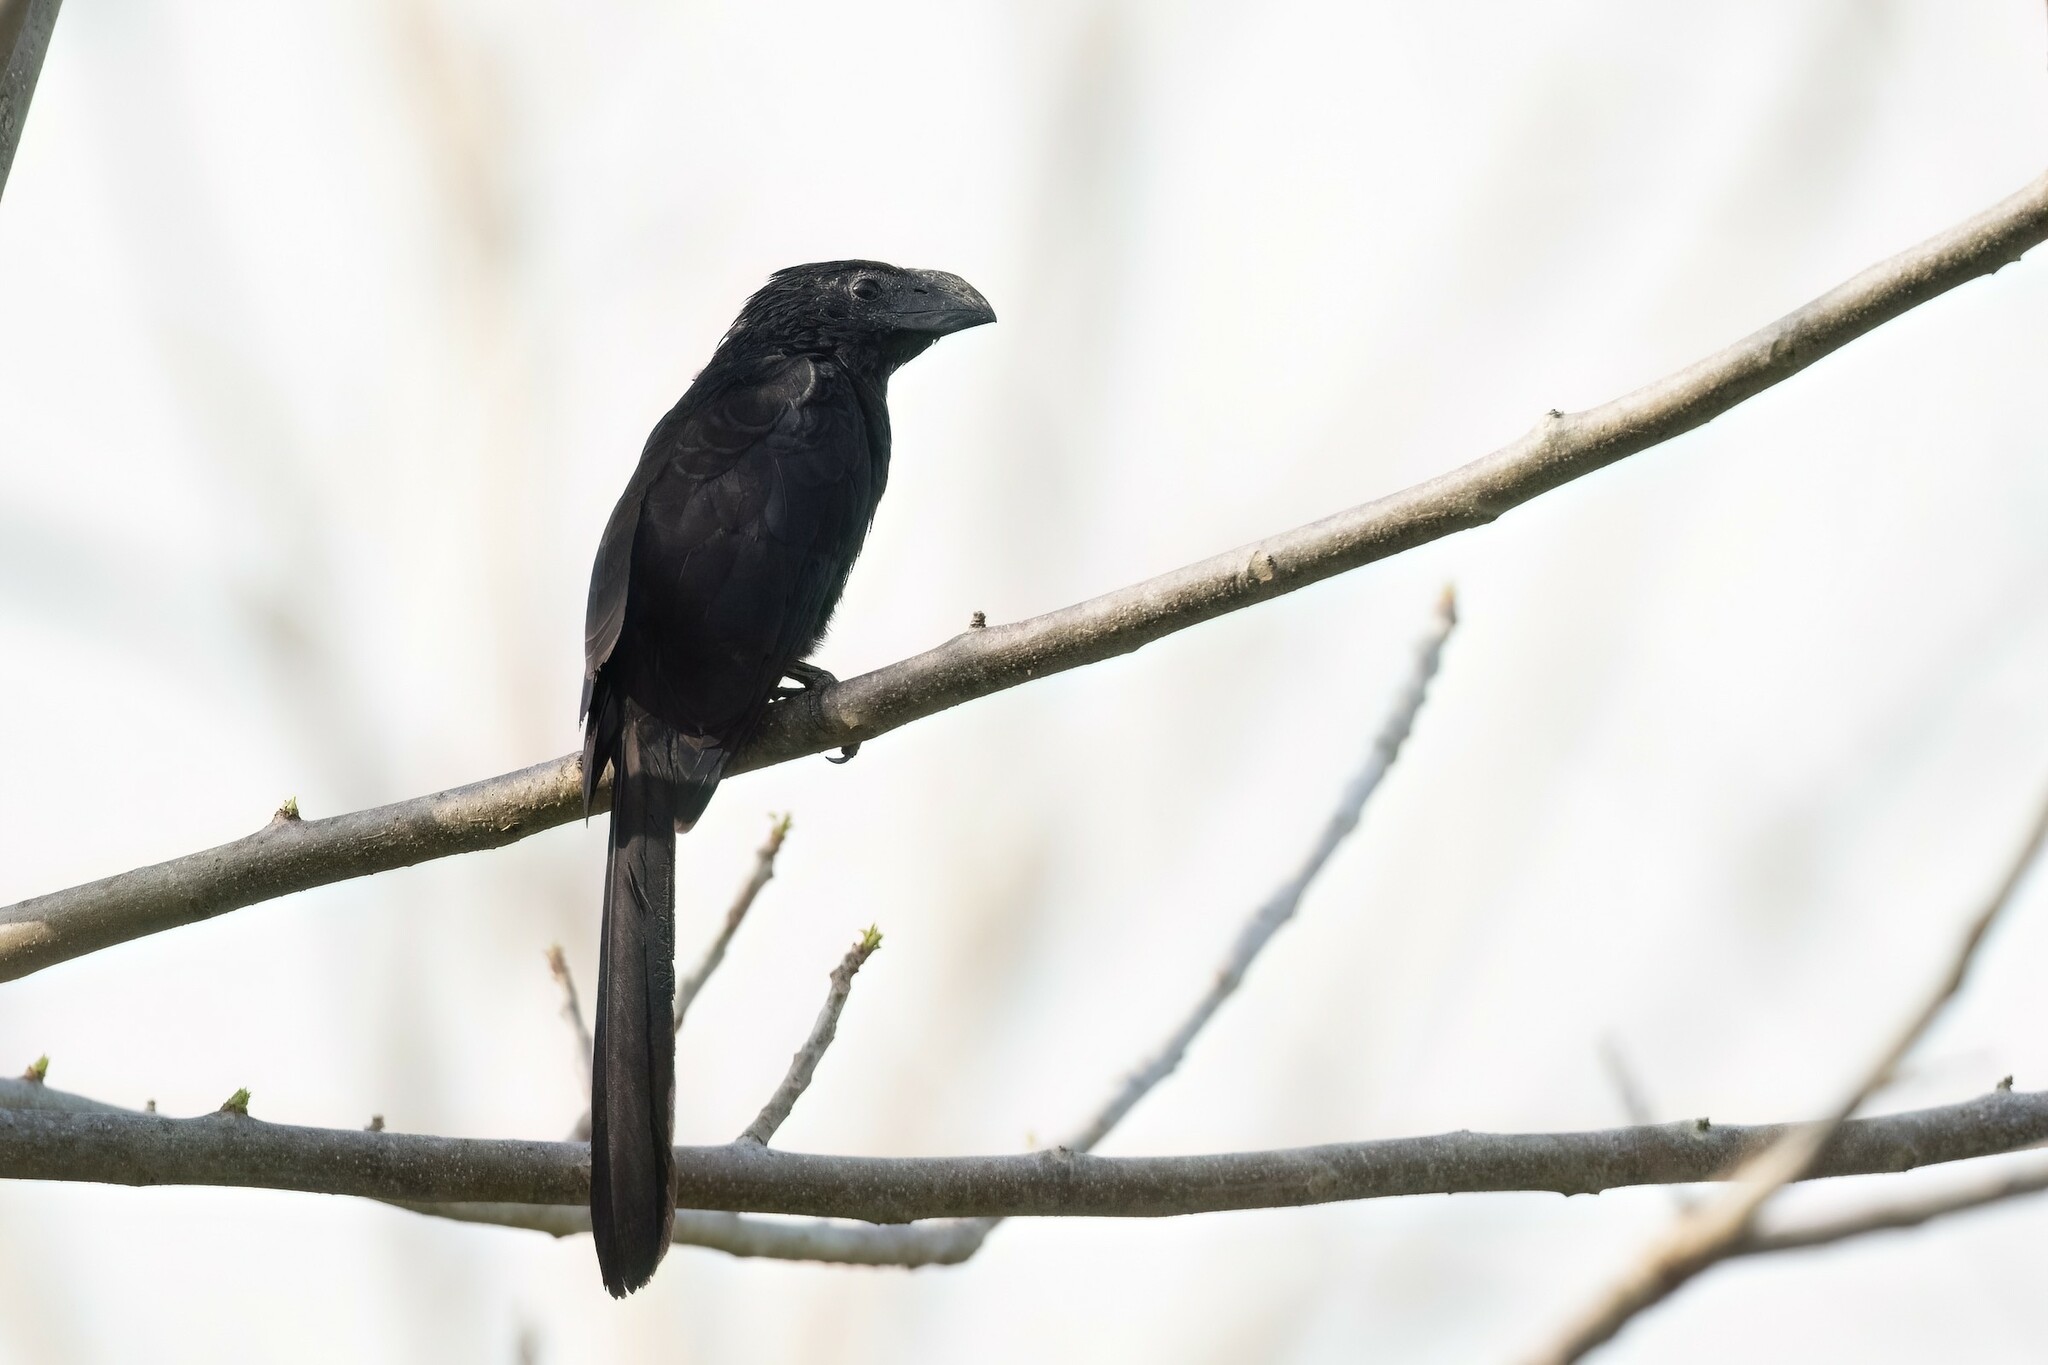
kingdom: Animalia
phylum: Chordata
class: Aves
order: Cuculiformes
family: Cuculidae
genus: Crotophaga
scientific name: Crotophaga sulcirostris
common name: Groove-billed ani
